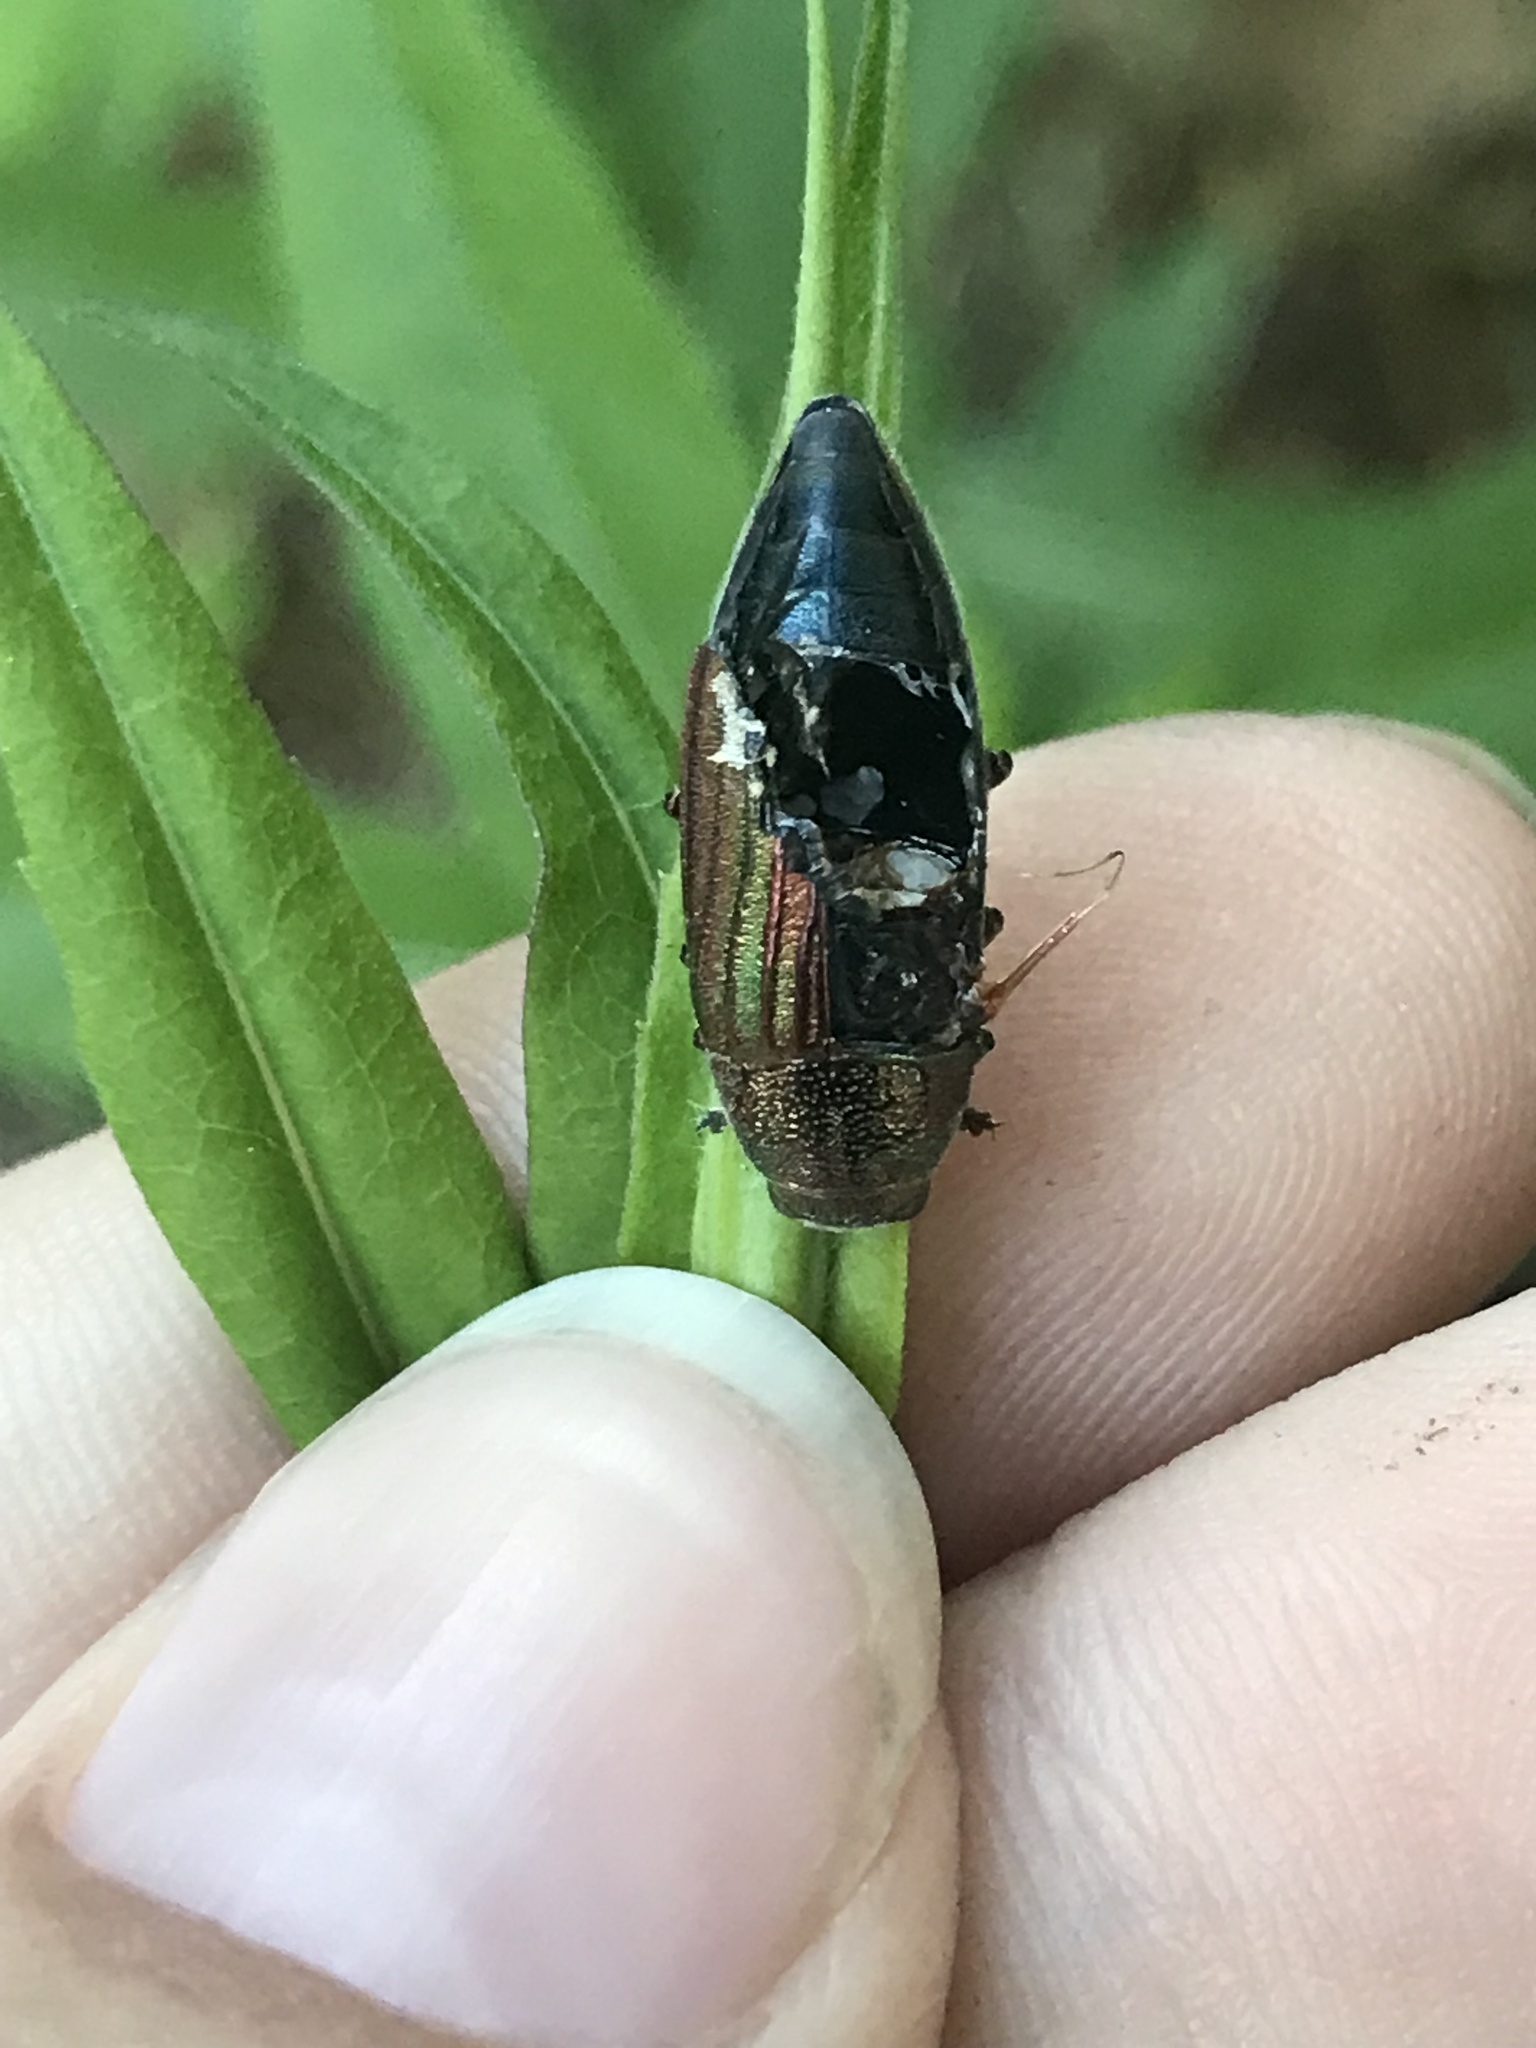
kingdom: Animalia
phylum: Arthropoda
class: Insecta
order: Coleoptera
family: Buprestidae
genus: Buprestis
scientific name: Buprestis striata
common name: Striated jewel beetle
